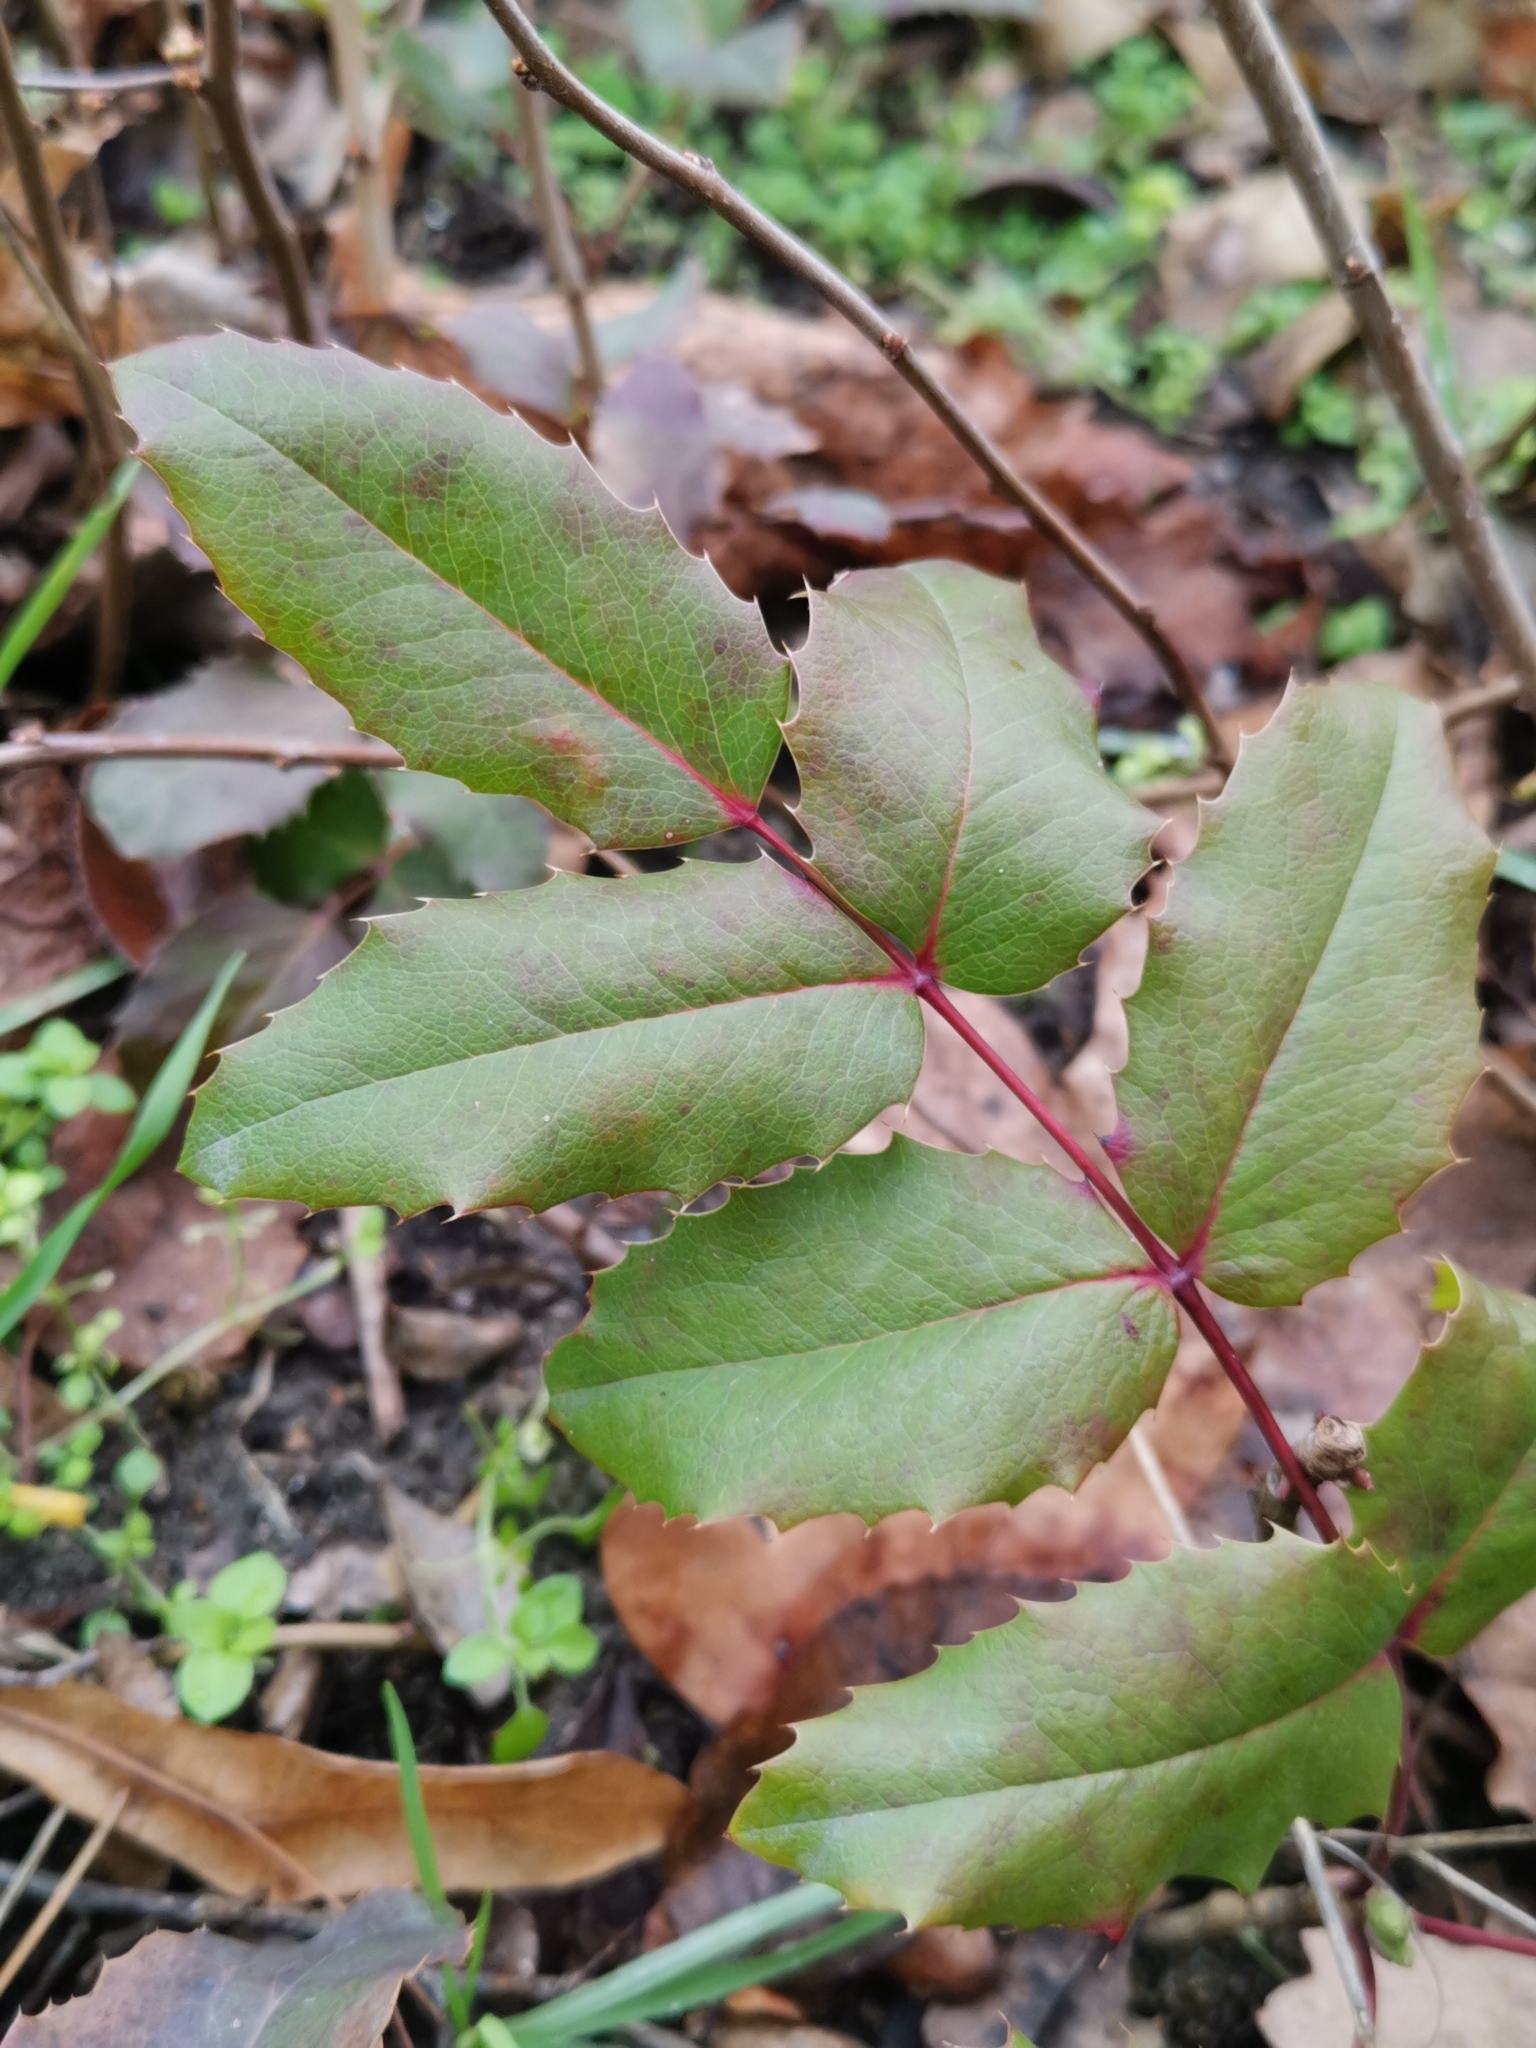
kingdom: Plantae
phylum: Tracheophyta
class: Magnoliopsida
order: Ranunculales
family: Berberidaceae
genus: Mahonia
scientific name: Mahonia aquifolium
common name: Oregon-grape
